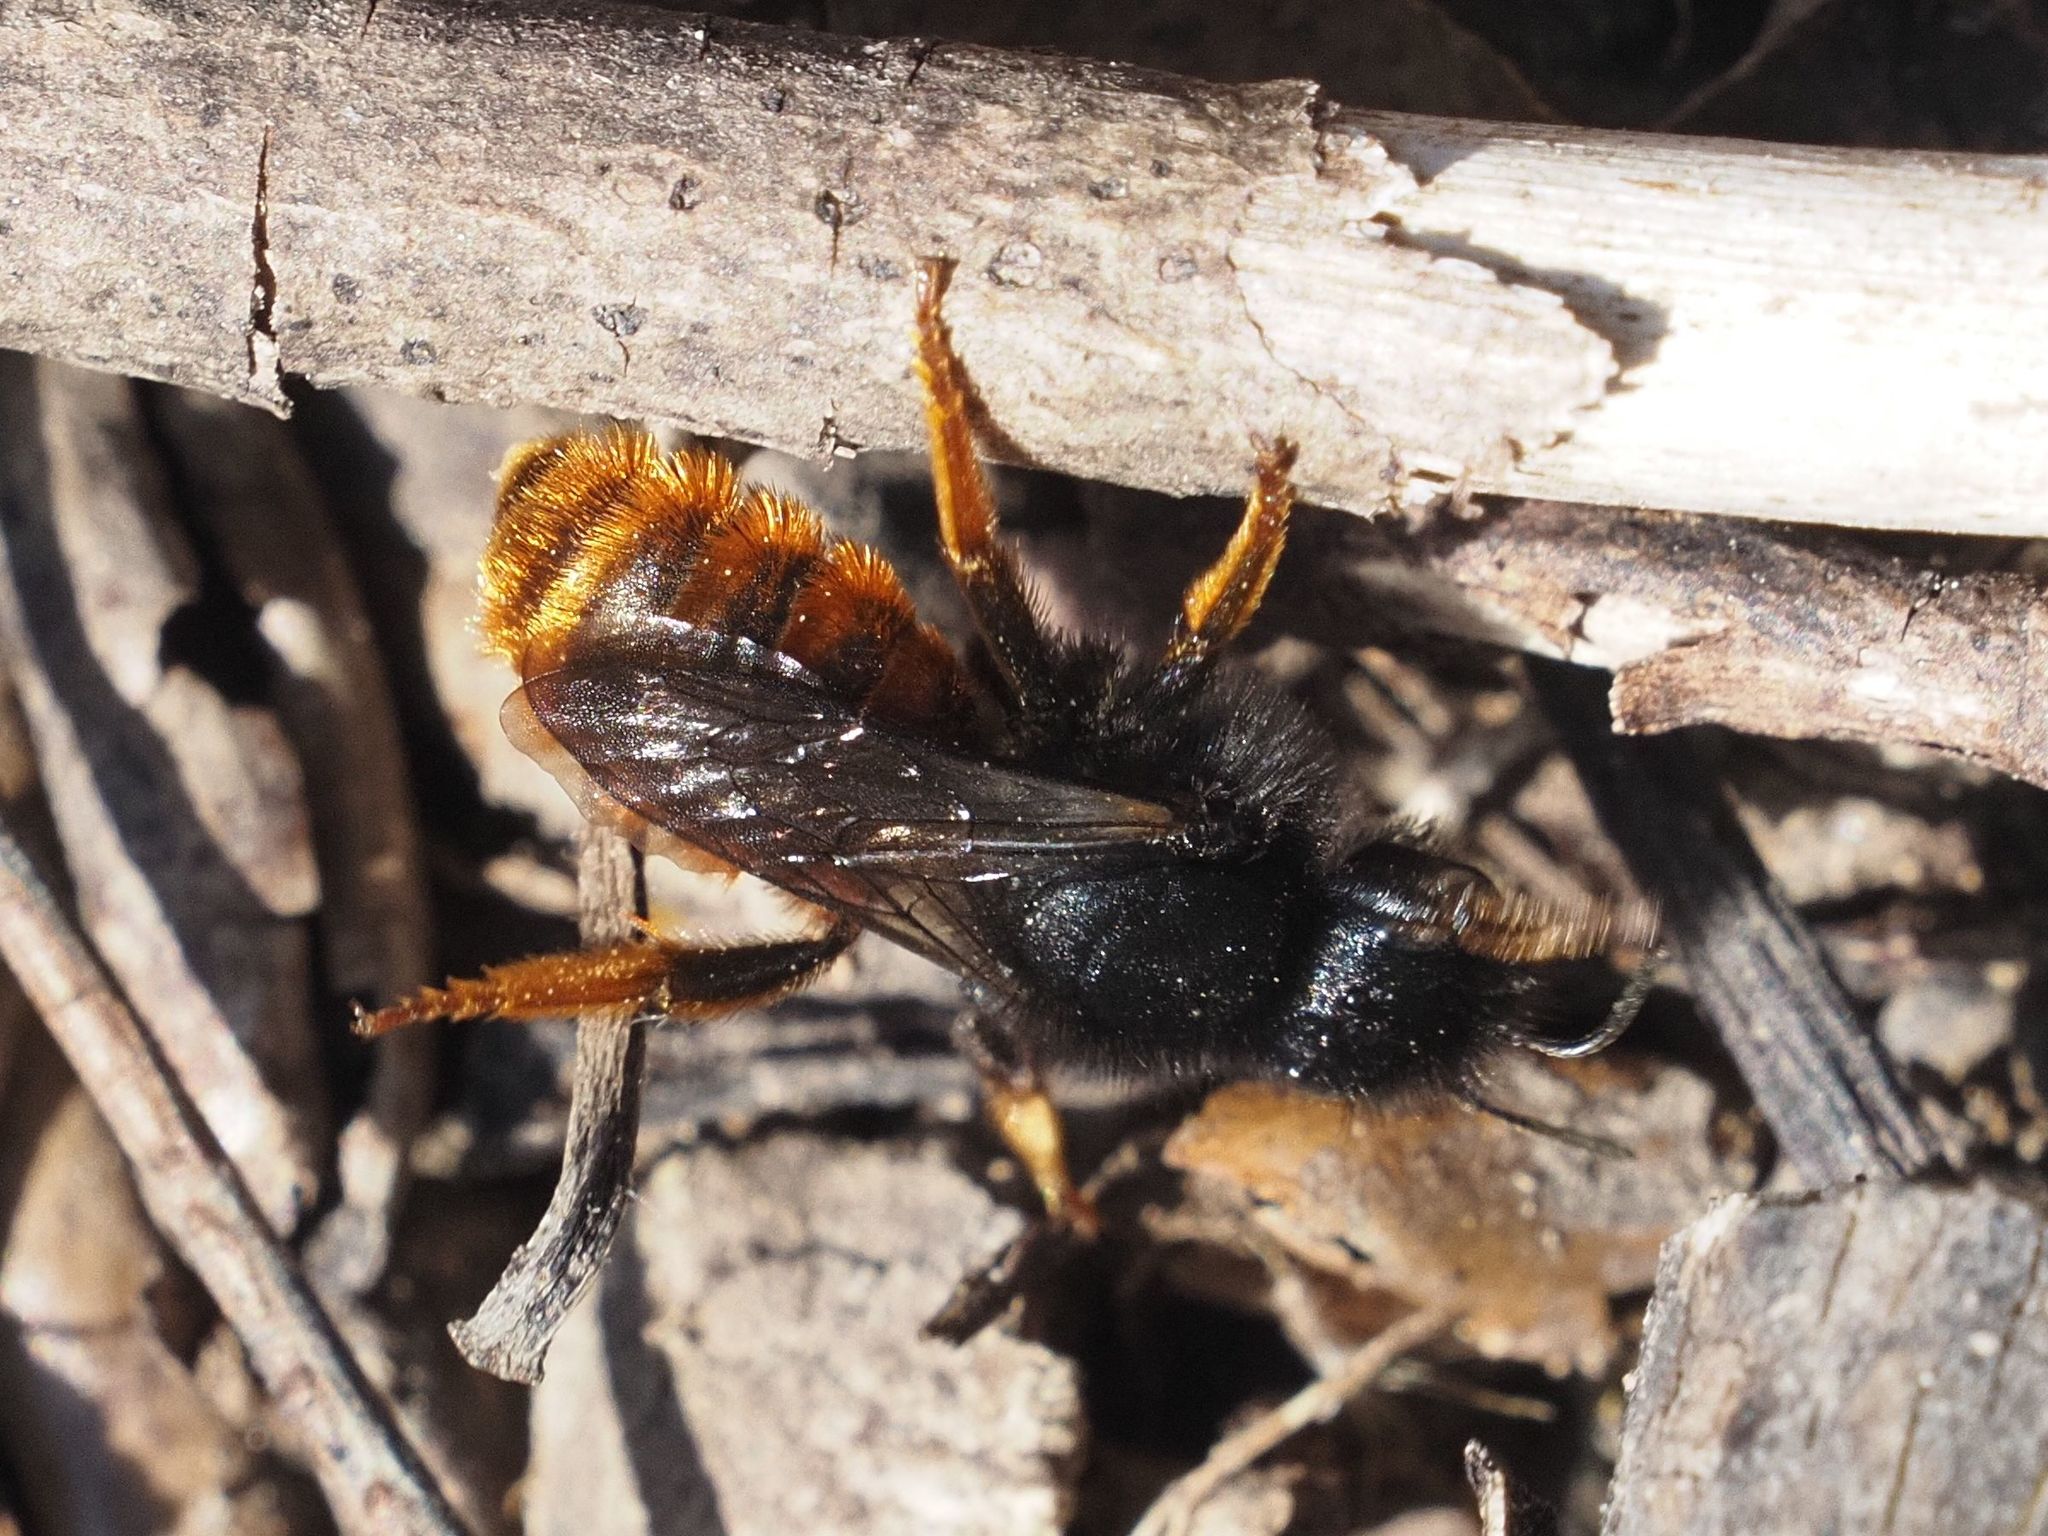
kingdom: Animalia
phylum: Arthropoda
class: Insecta
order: Hymenoptera
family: Megachilidae
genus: Osmia
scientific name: Osmia bicolor
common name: Red-tailed mason bee
